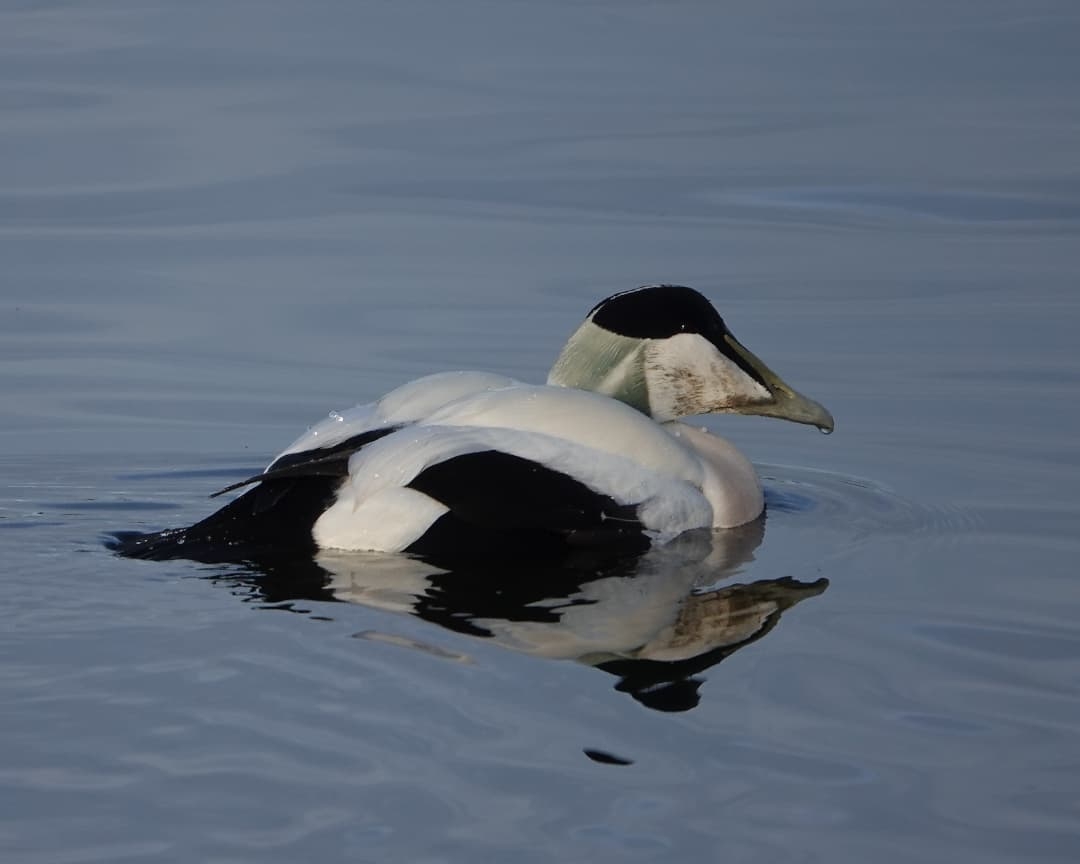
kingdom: Animalia
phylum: Chordata
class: Aves
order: Anseriformes
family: Anatidae
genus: Somateria
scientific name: Somateria mollissima
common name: Common eider
